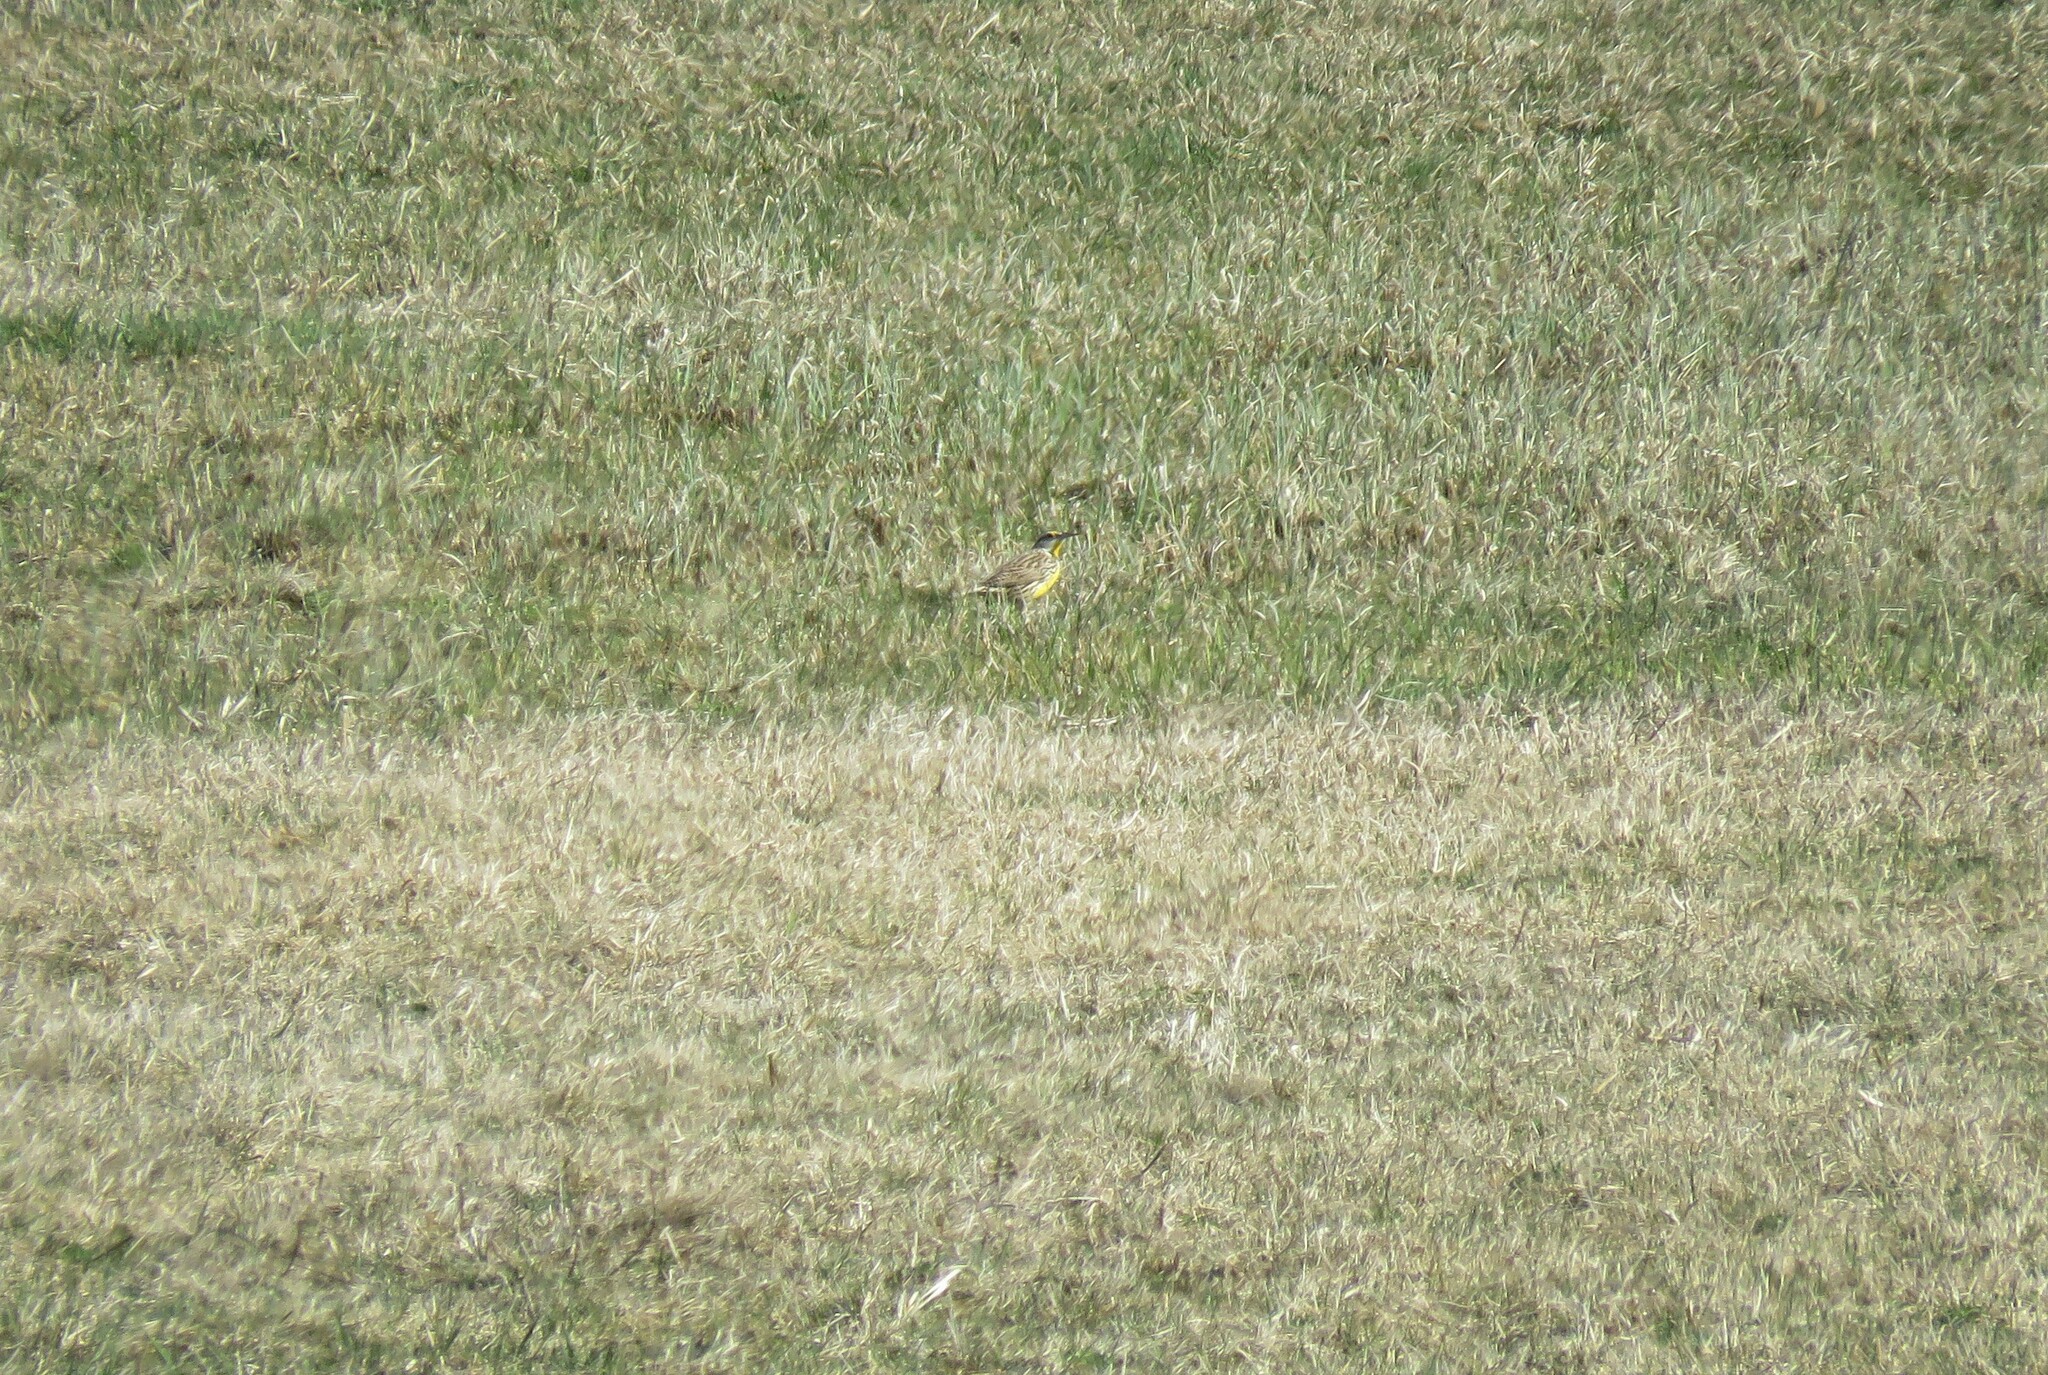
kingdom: Animalia
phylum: Chordata
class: Aves
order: Passeriformes
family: Icteridae
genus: Sturnella
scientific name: Sturnella magna
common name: Eastern meadowlark
